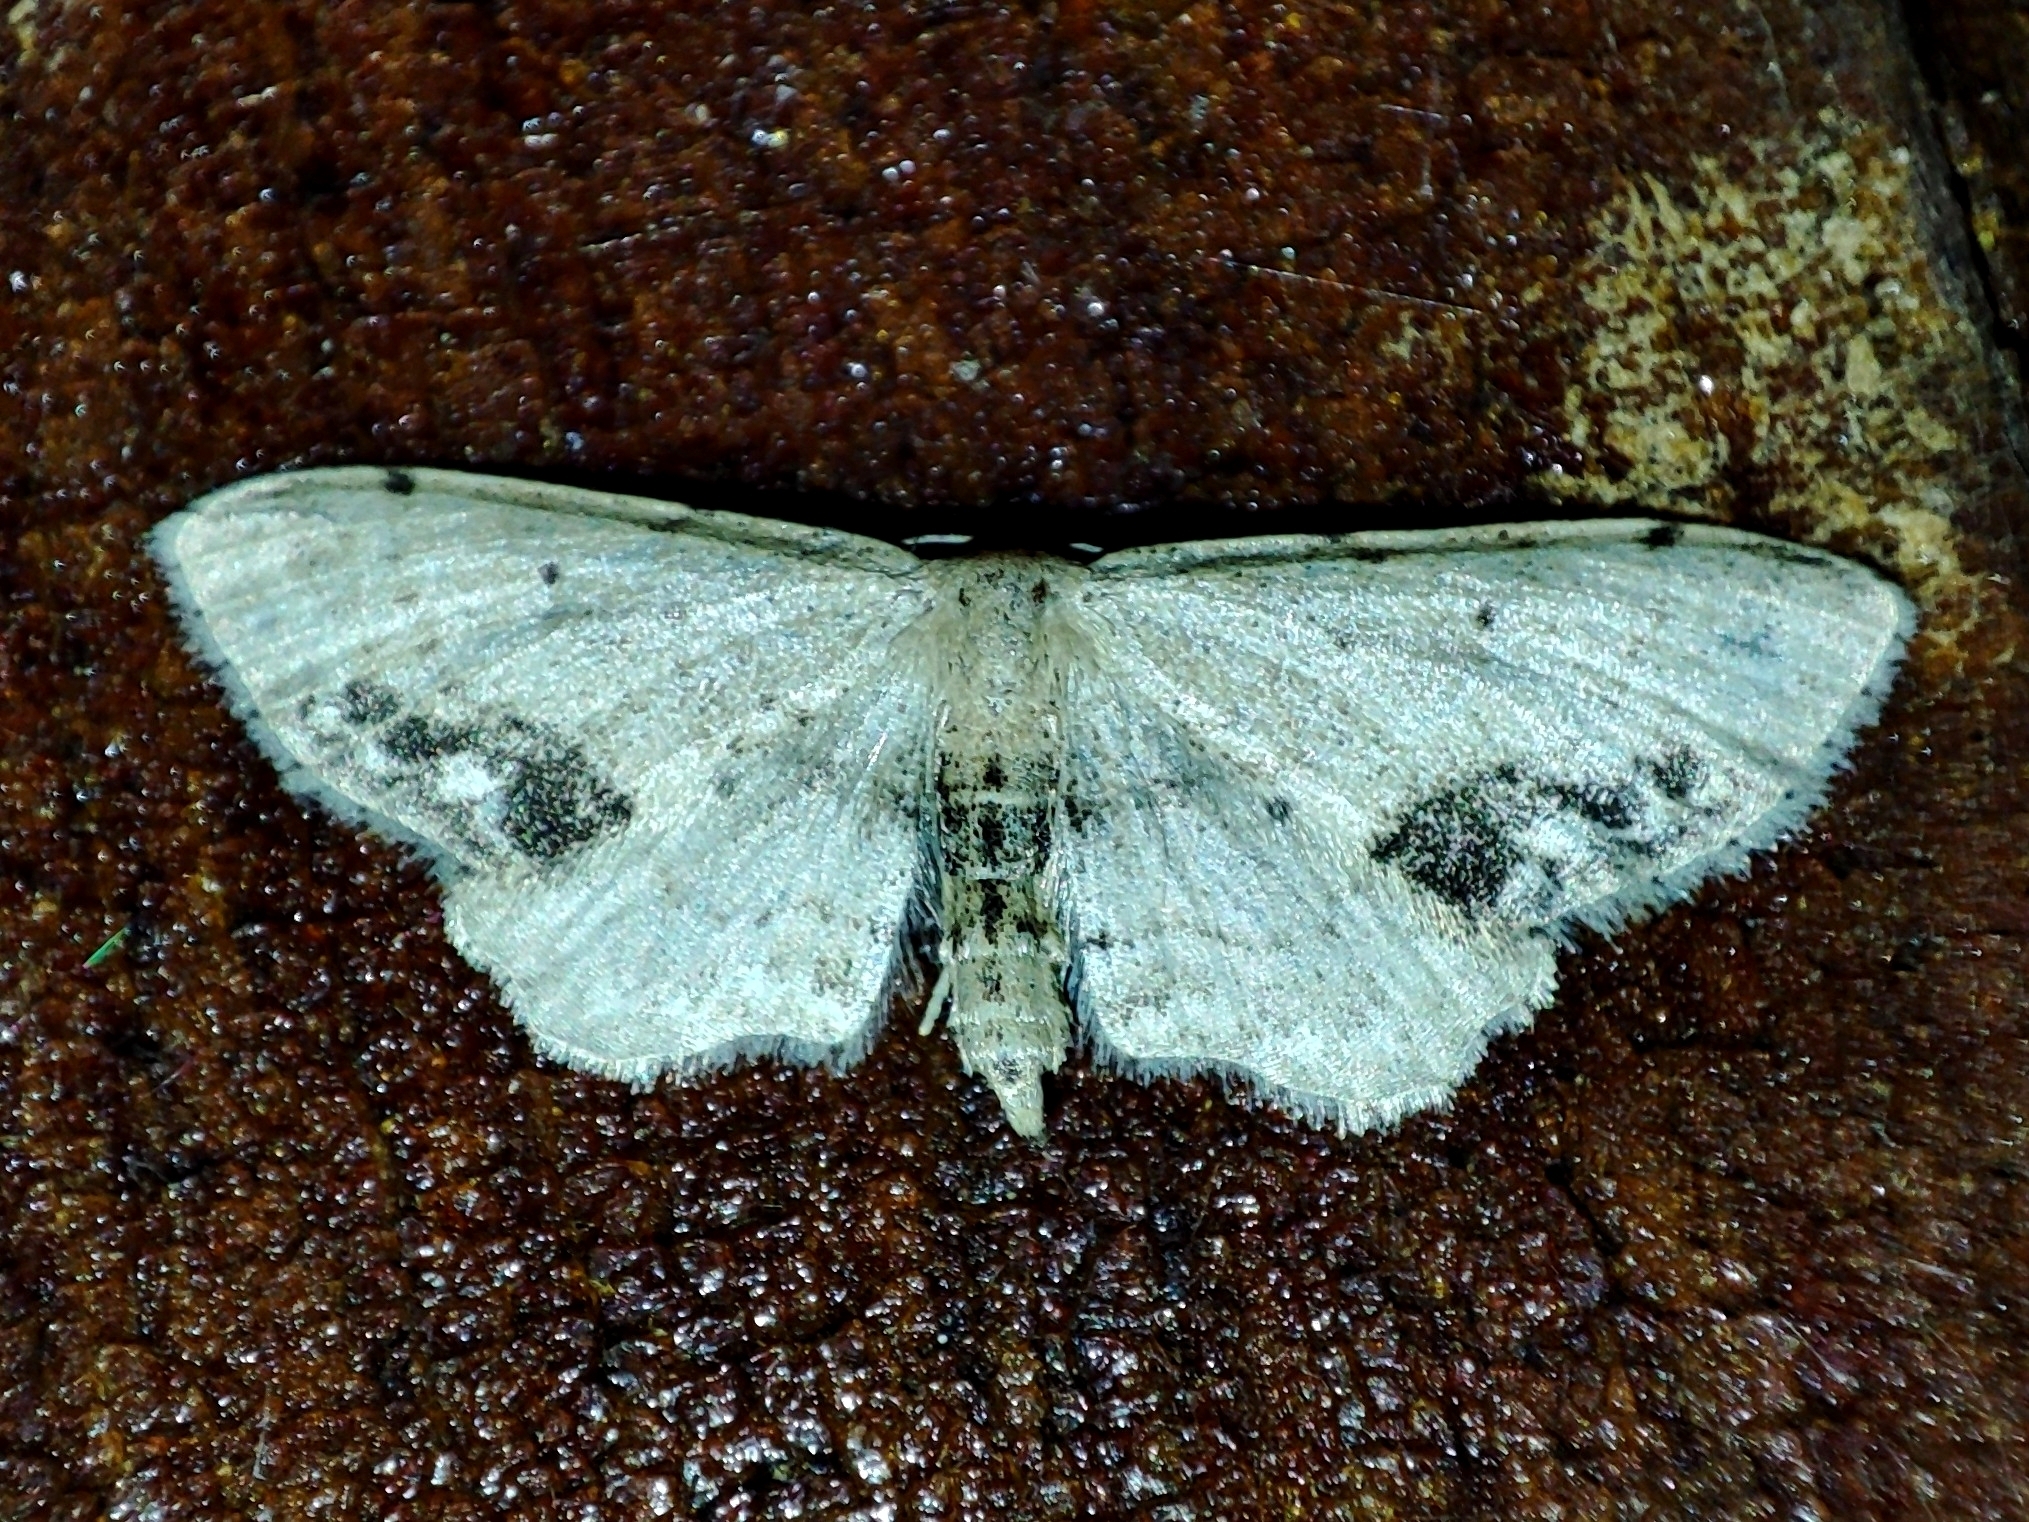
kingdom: Animalia
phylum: Arthropoda
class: Insecta
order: Lepidoptera
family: Geometridae
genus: Idaea
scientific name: Idaea dimidiata
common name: Single-dotted wave
